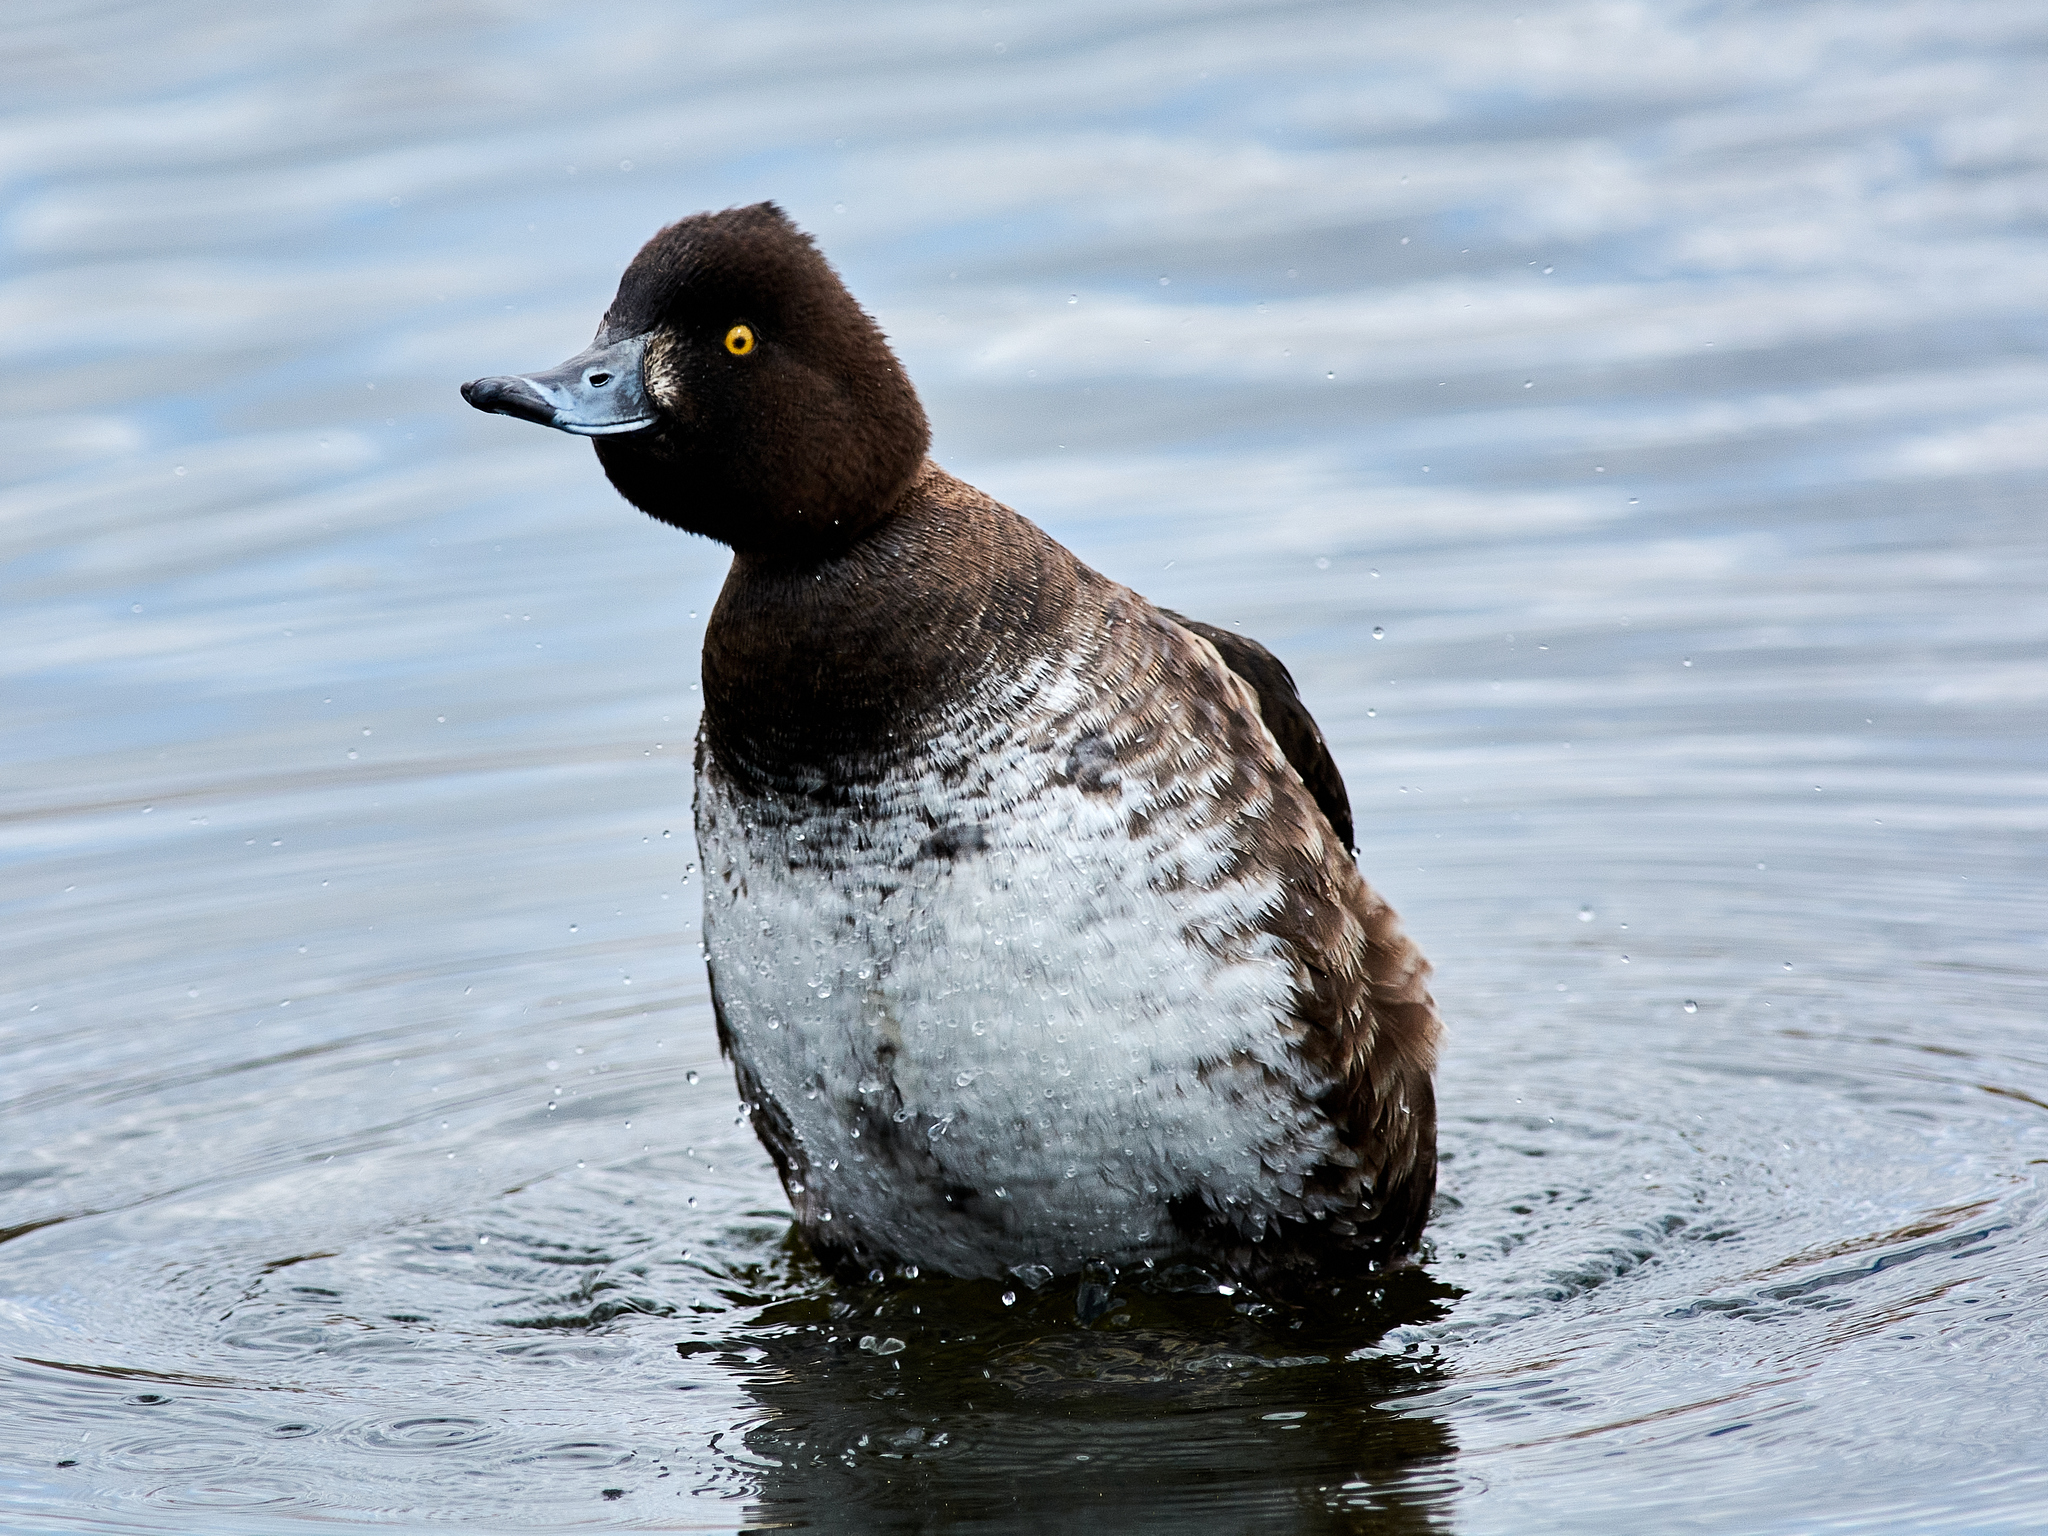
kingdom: Animalia
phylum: Chordata
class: Aves
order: Anseriformes
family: Anatidae
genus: Aythya
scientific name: Aythya fuligula
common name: Tufted duck
